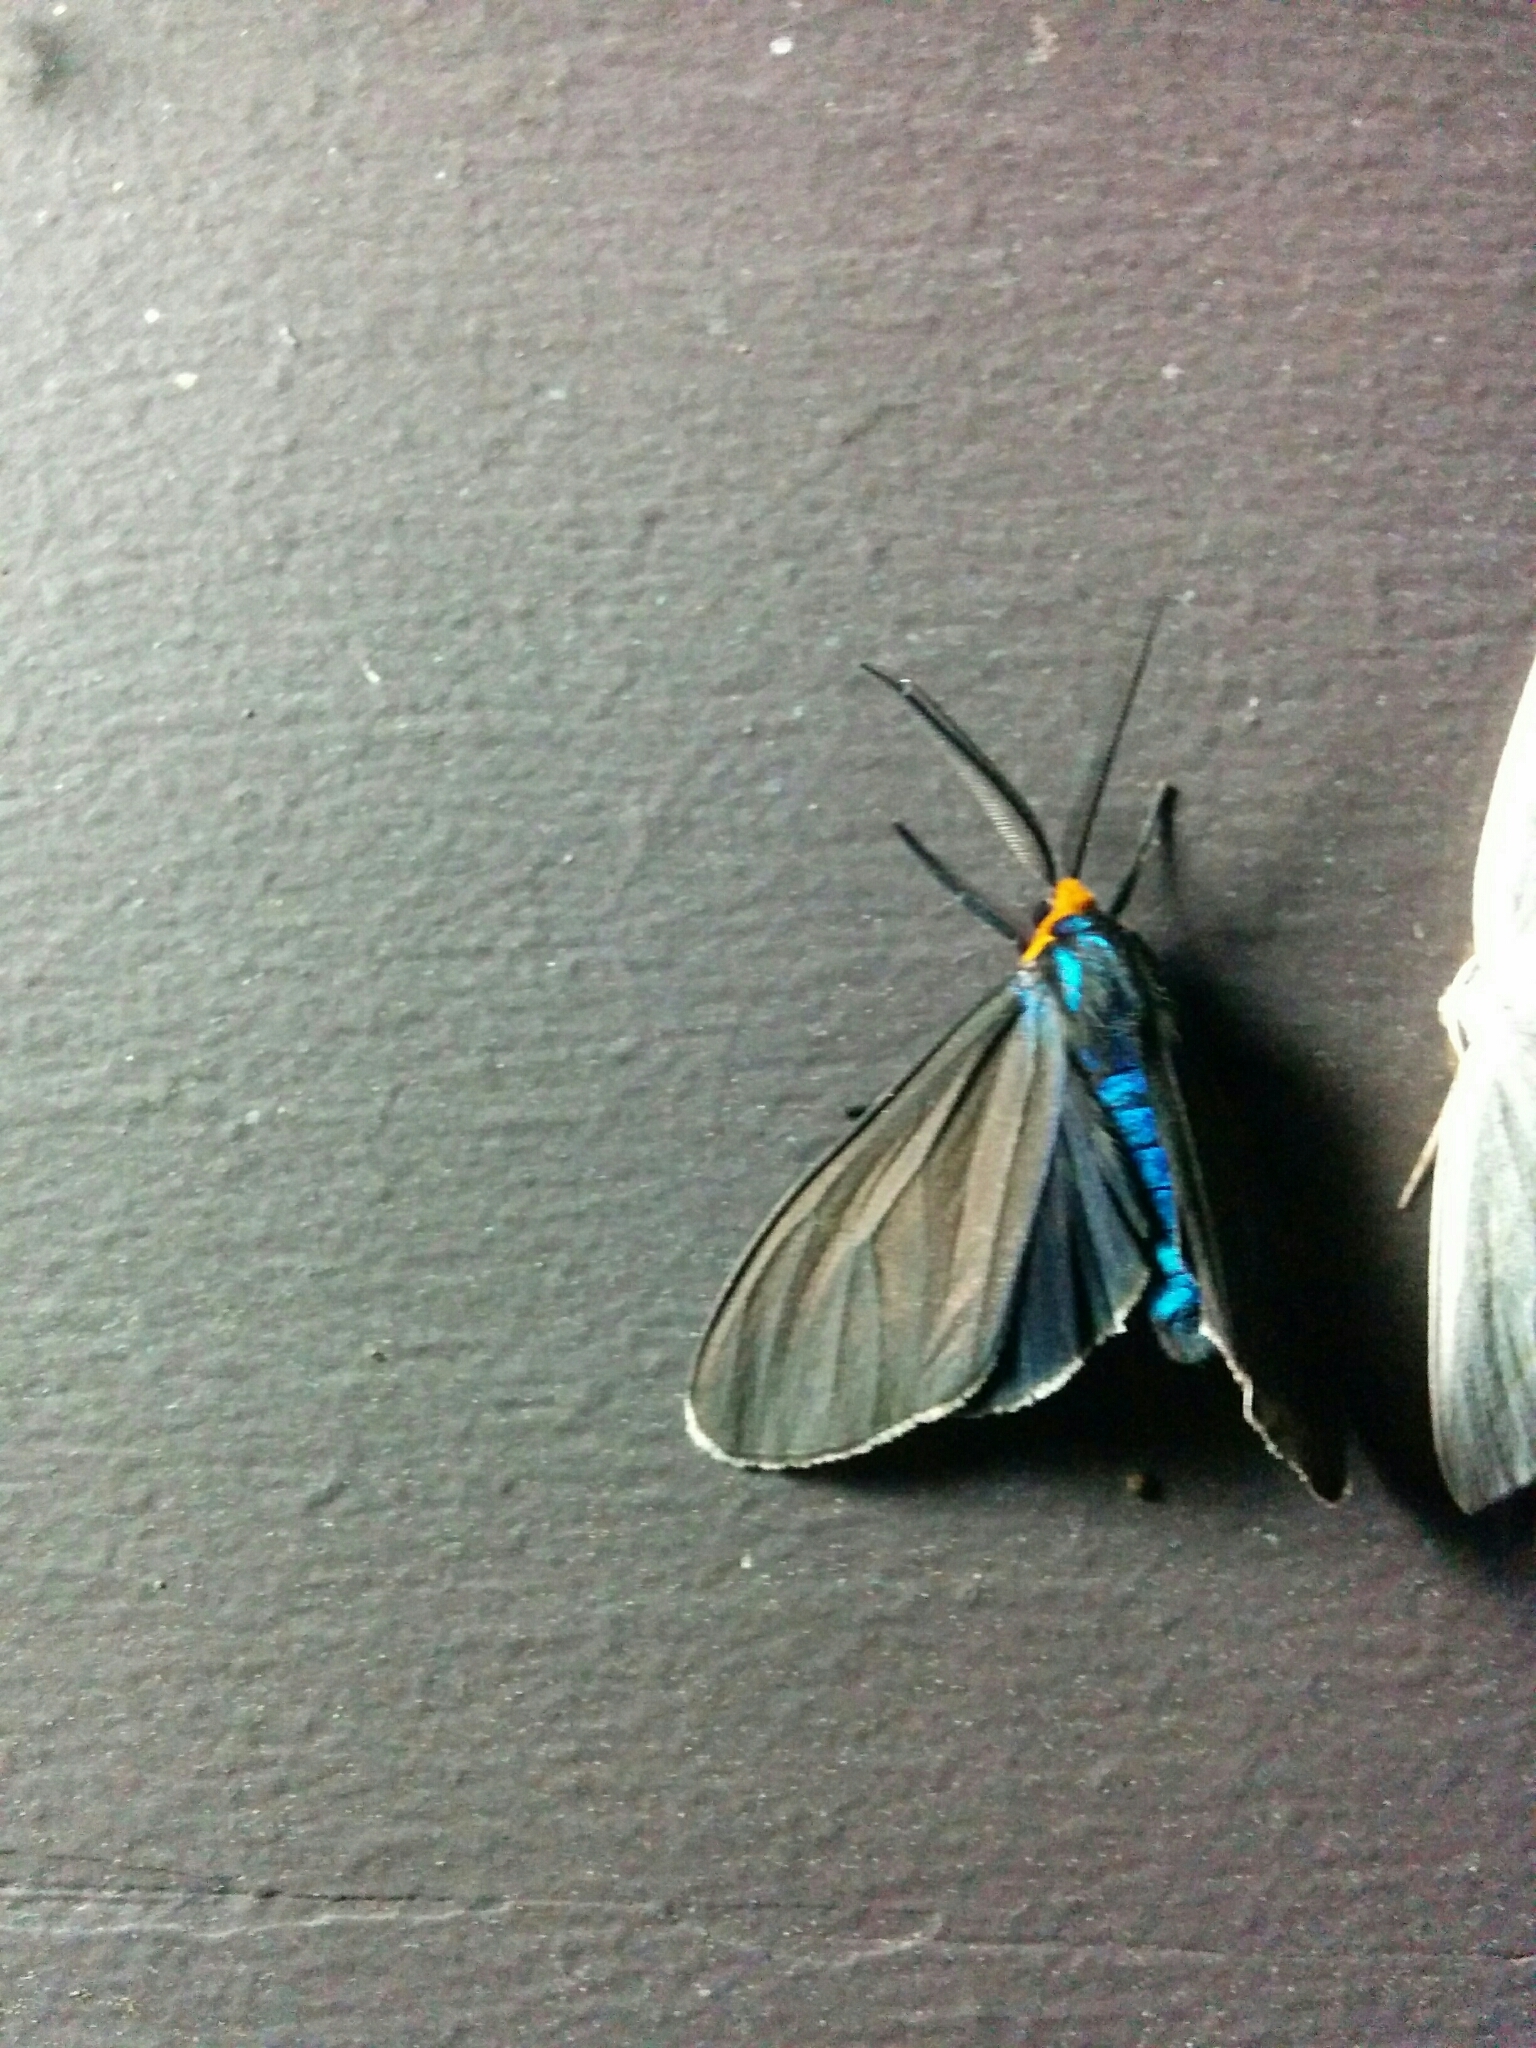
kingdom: Animalia
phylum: Arthropoda
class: Insecta
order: Lepidoptera
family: Erebidae
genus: Ctenucha
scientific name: Ctenucha virginica
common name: Virginia ctenucha moth
